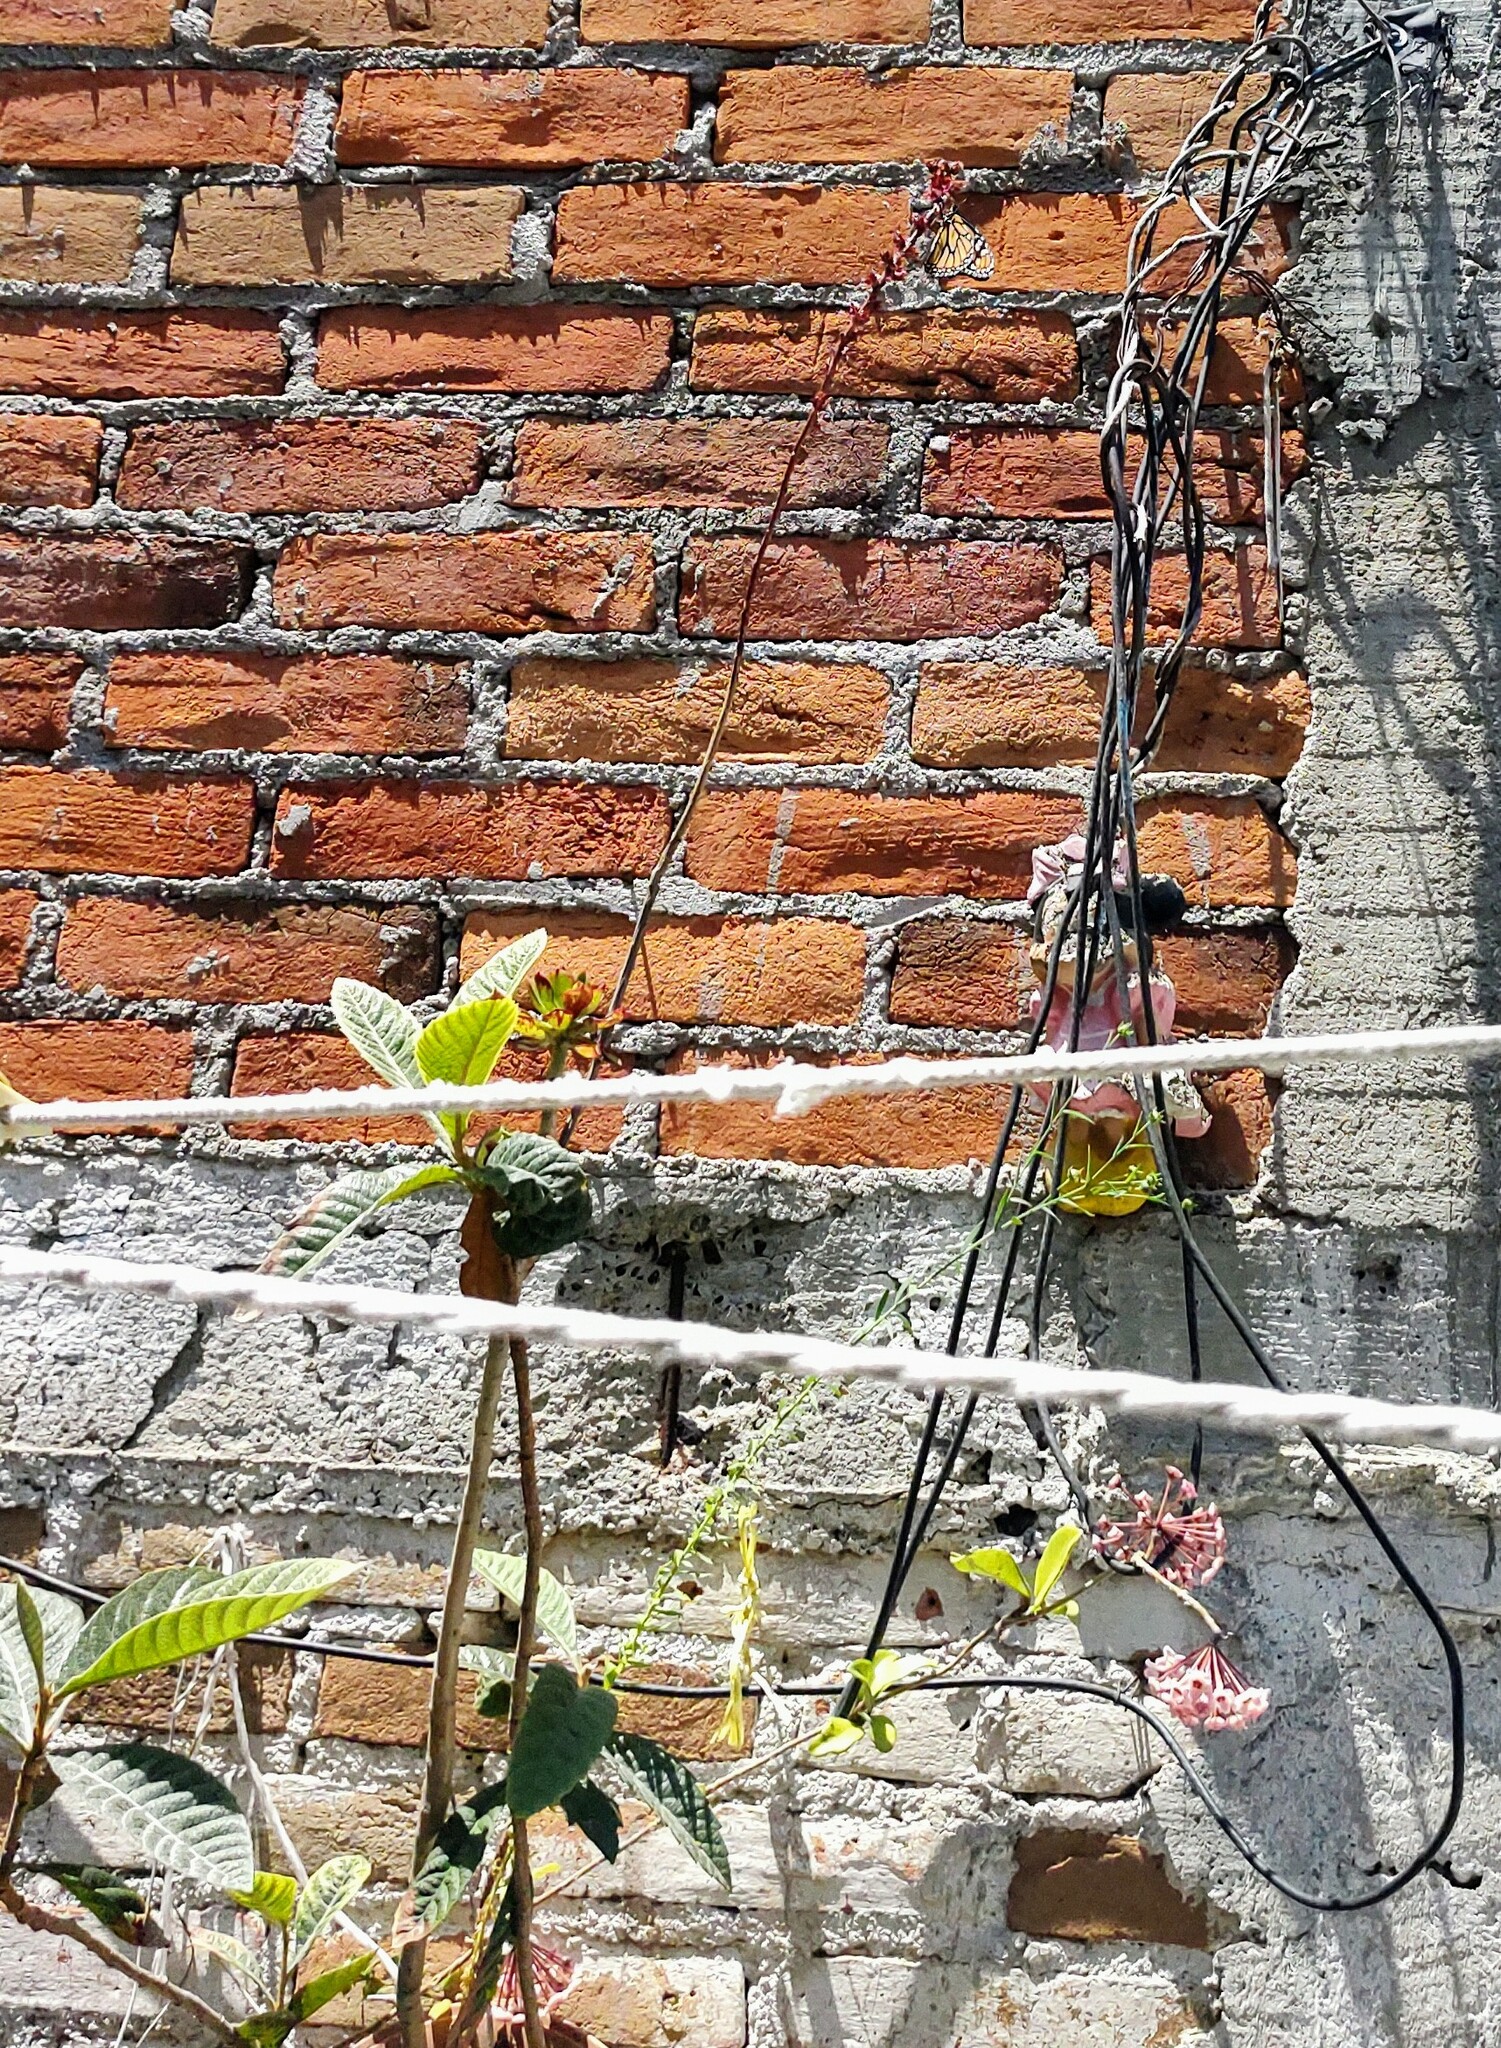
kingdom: Animalia
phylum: Arthropoda
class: Insecta
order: Lepidoptera
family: Nymphalidae
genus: Danaus
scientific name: Danaus plexippus
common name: Monarch
